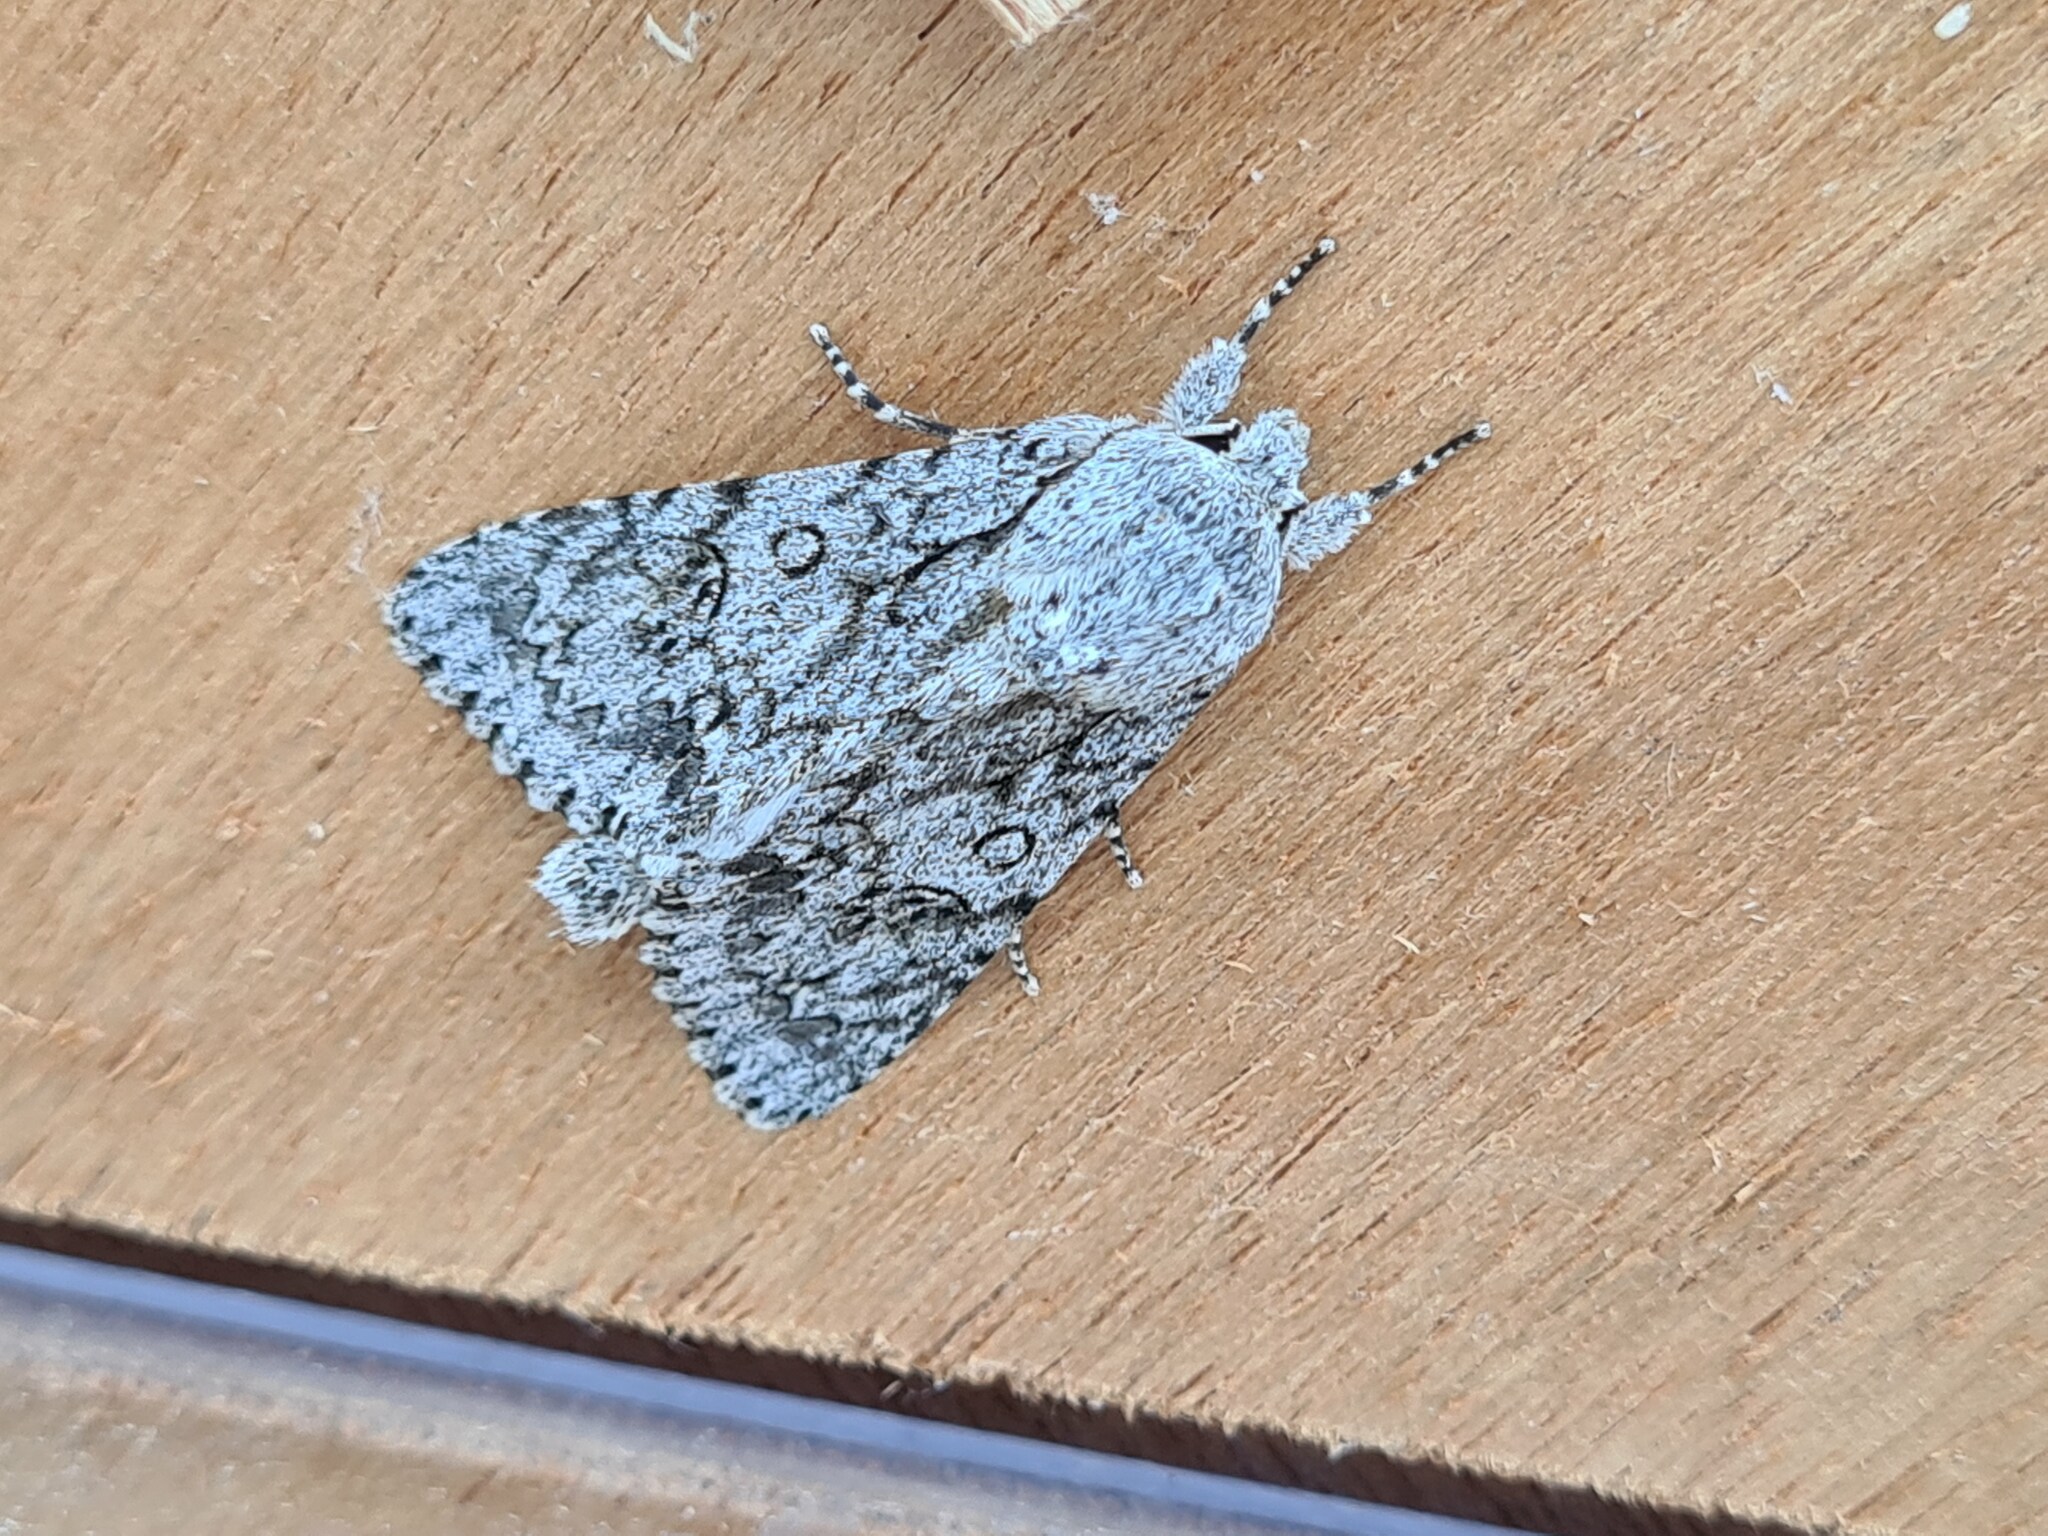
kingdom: Animalia
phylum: Arthropoda
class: Insecta
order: Lepidoptera
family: Noctuidae
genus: Acronicta
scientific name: Acronicta aceris
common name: Sycamore
